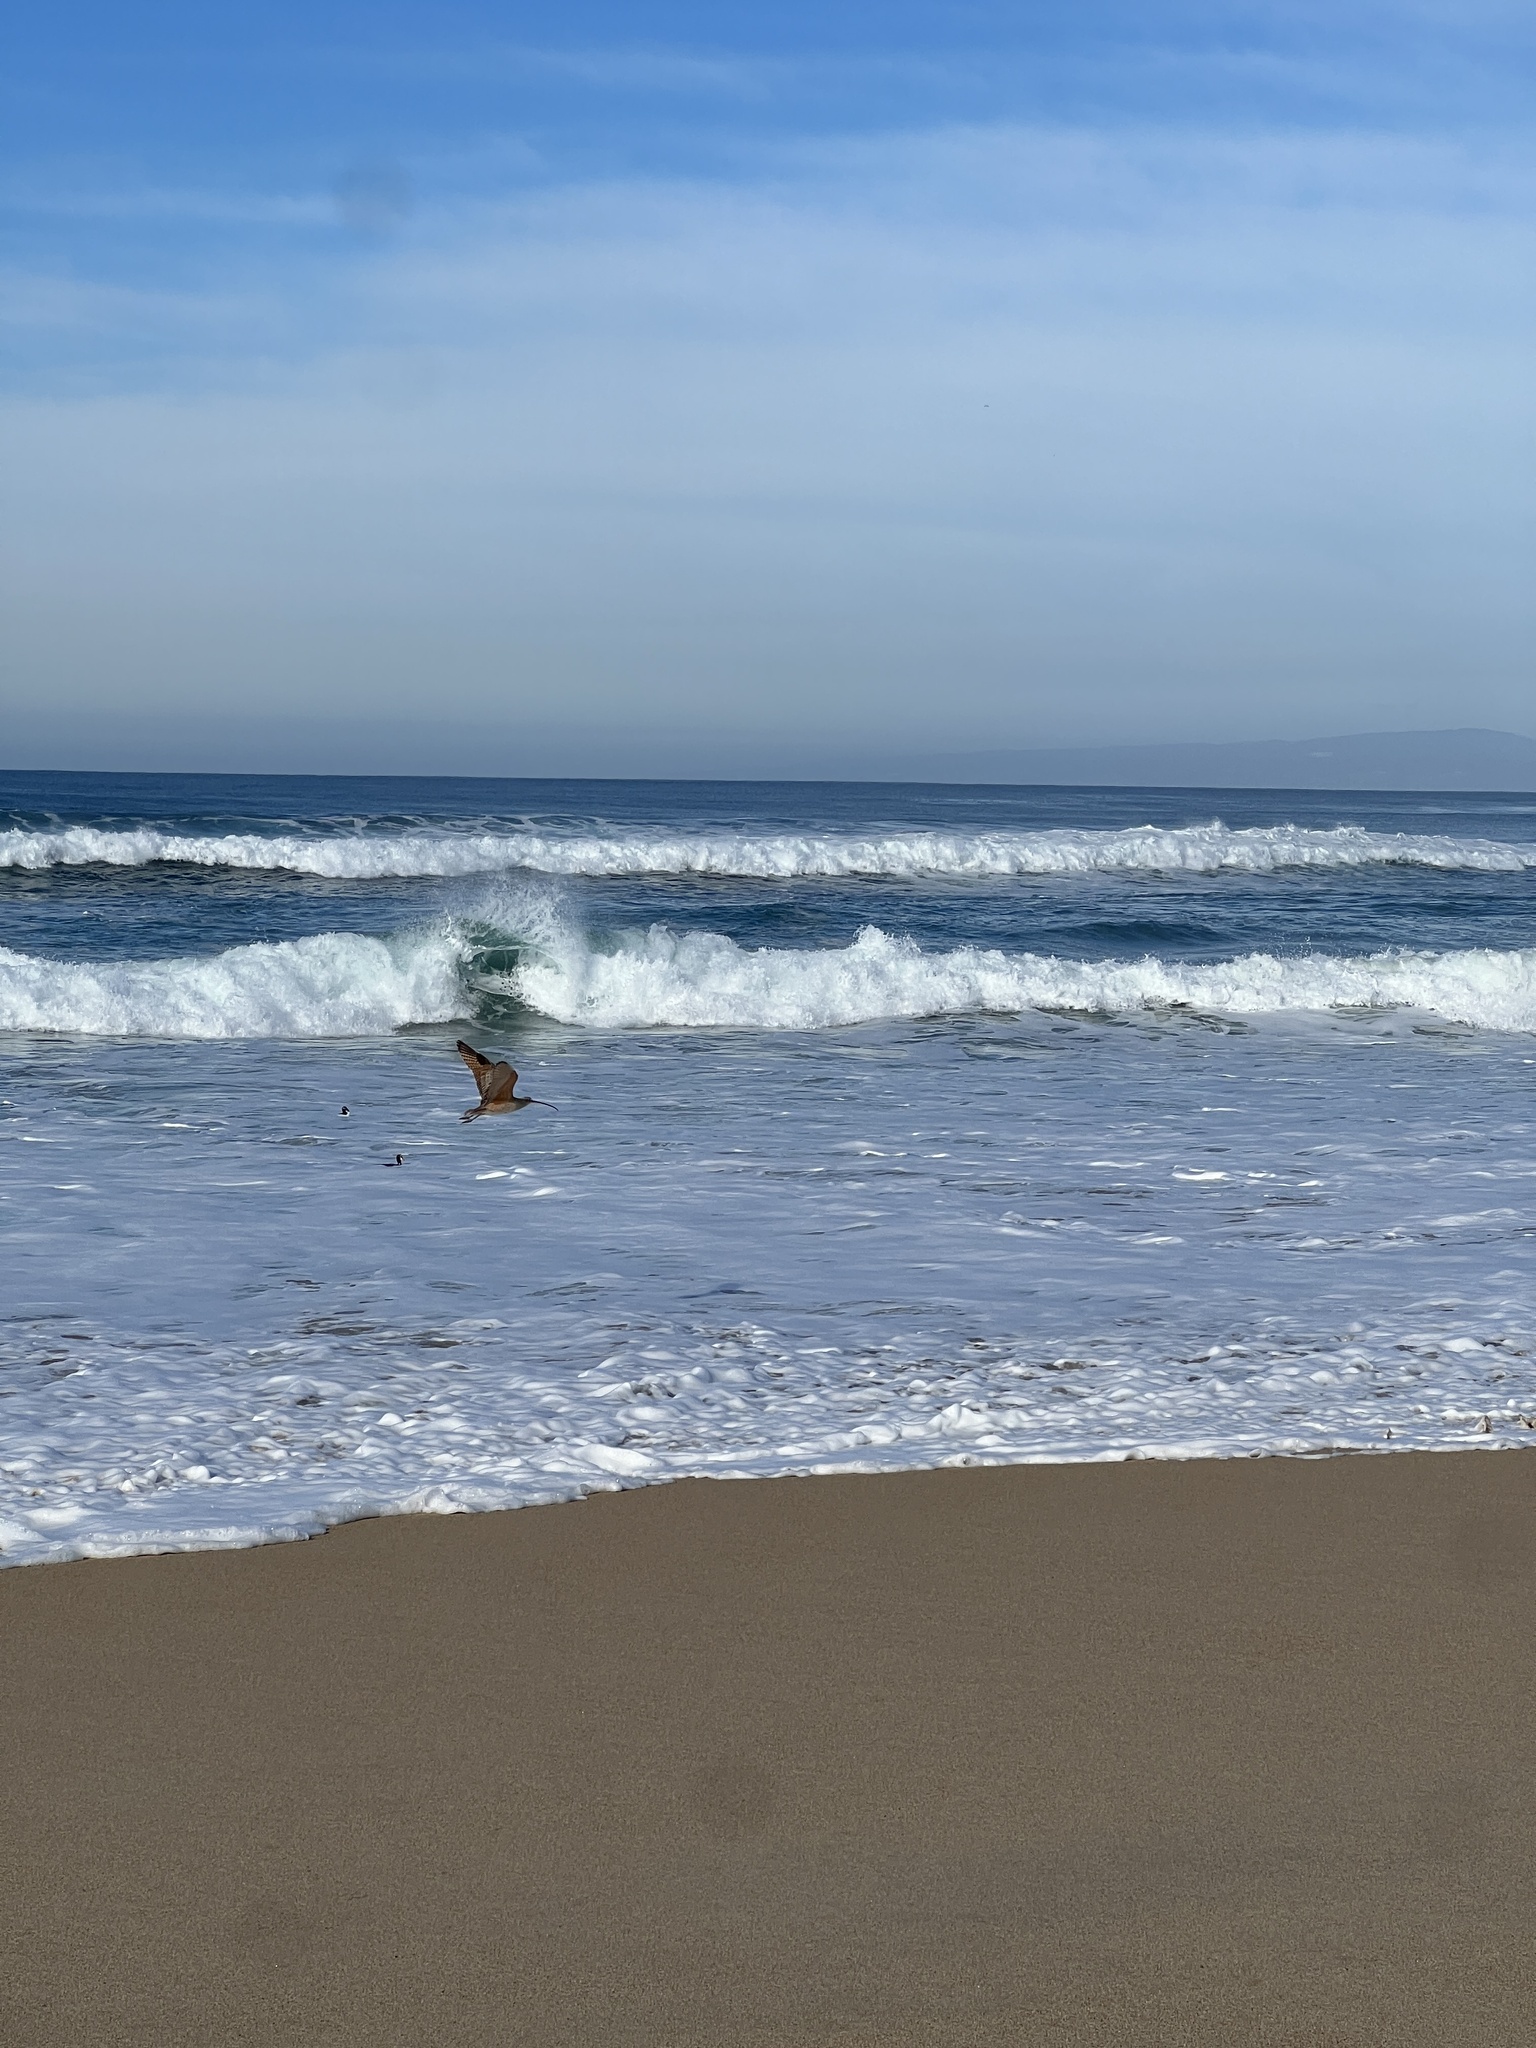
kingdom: Animalia
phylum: Chordata
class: Aves
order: Charadriiformes
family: Scolopacidae
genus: Numenius
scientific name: Numenius americanus
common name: Long-billed curlew
